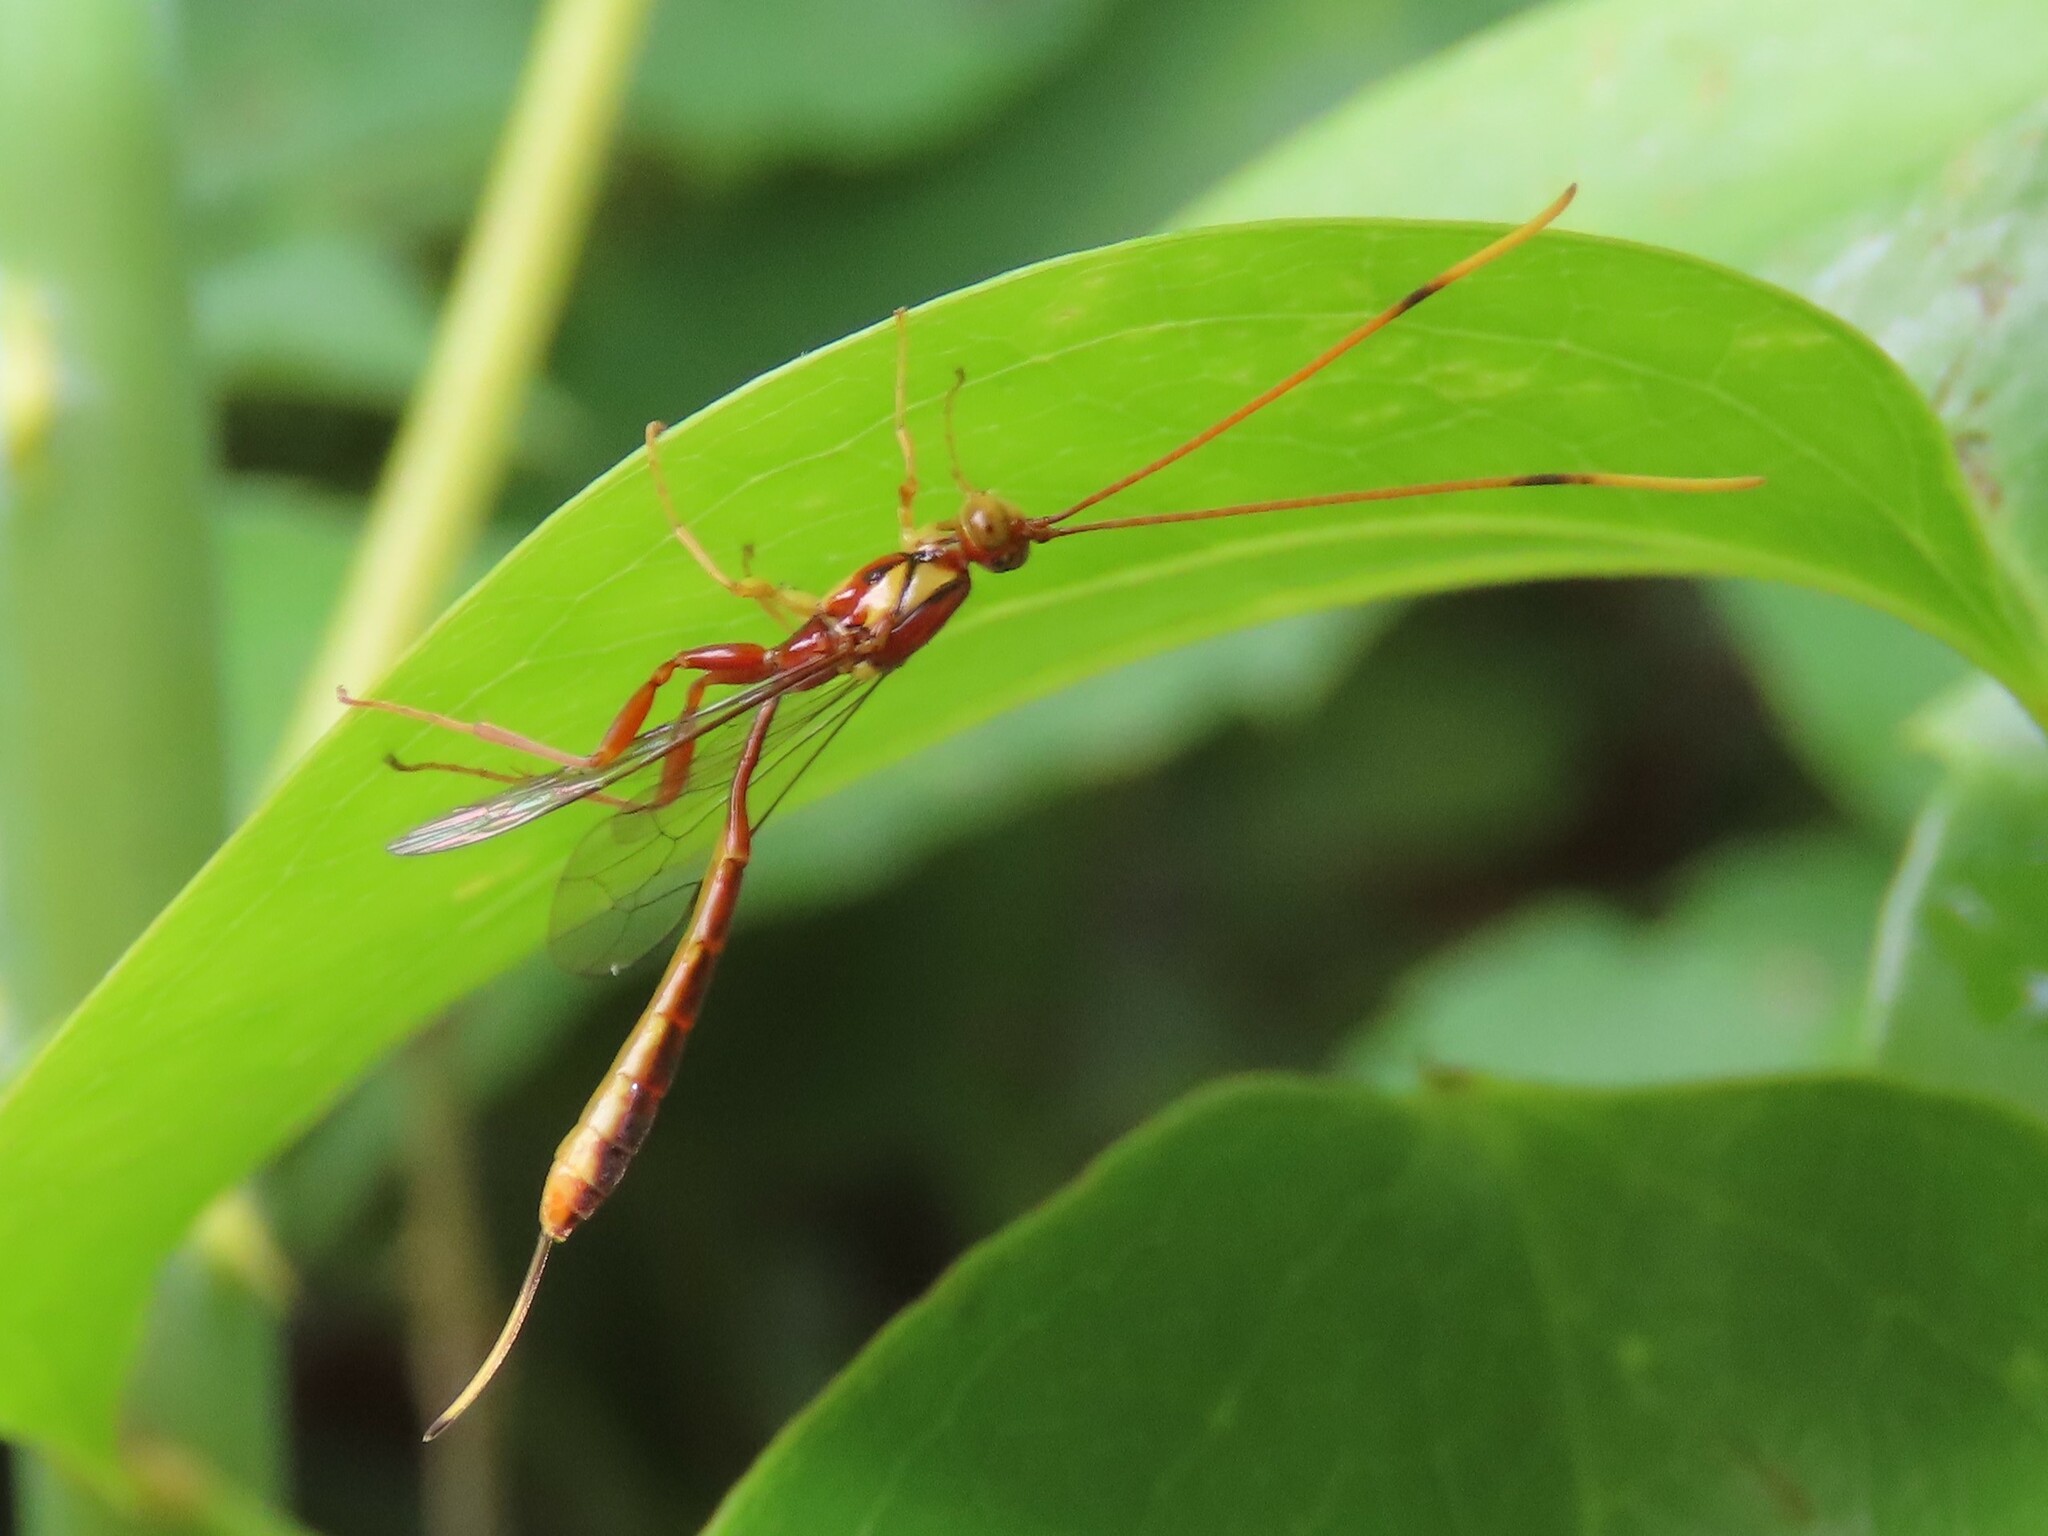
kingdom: Animalia
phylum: Arthropoda
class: Insecta
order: Hymenoptera
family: Ichneumonidae
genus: Grotea
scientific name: Grotea anguina
